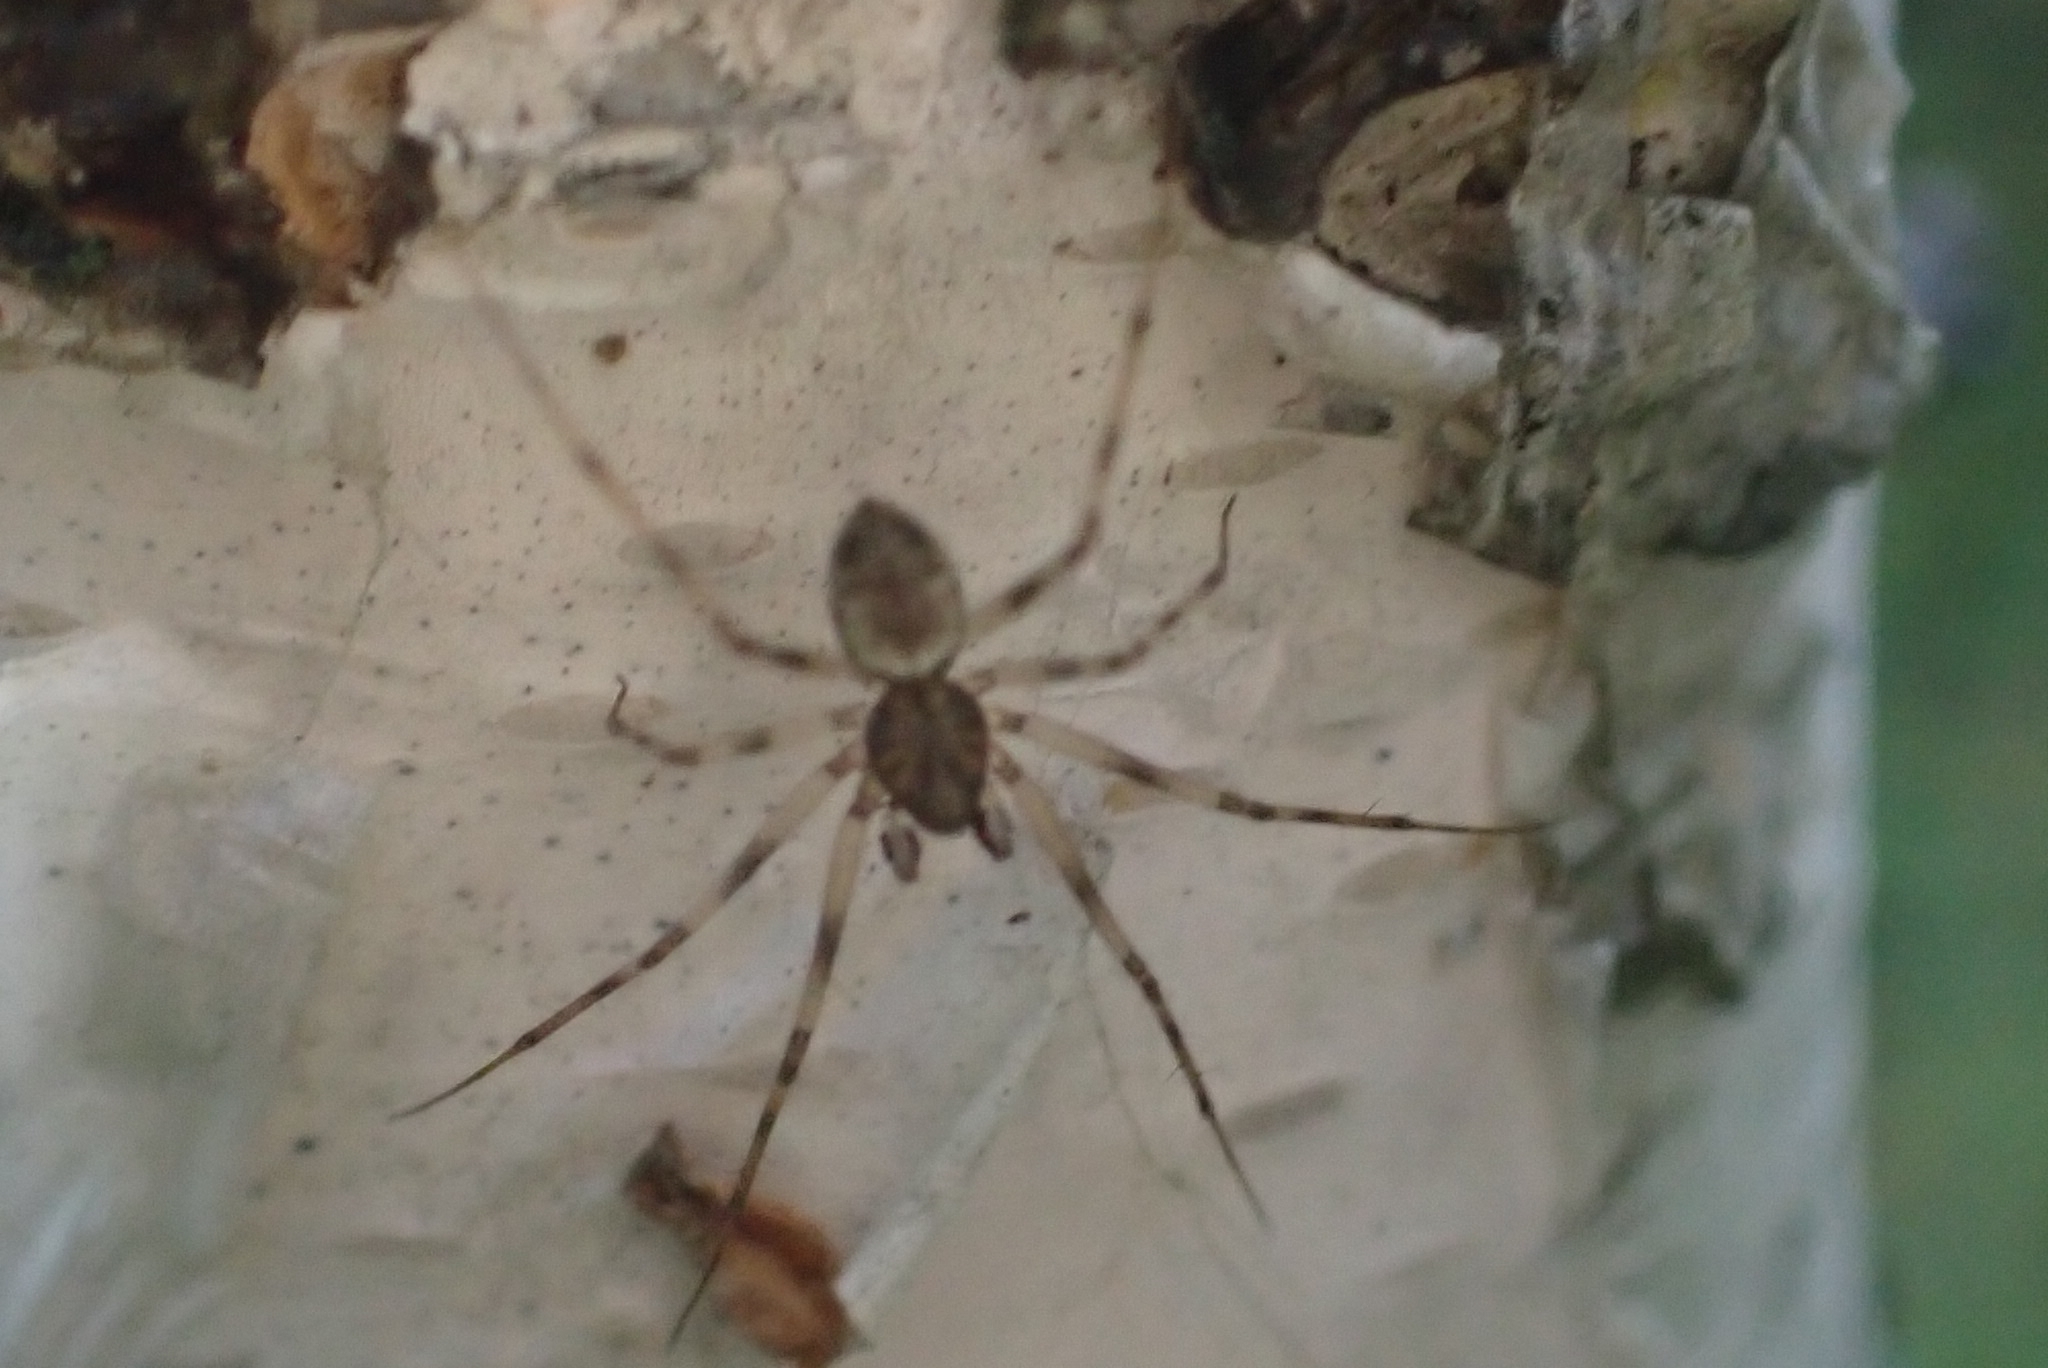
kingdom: Animalia
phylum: Arthropoda
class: Arachnida
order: Araneae
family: Linyphiidae
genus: Drapetisca
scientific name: Drapetisca socialis
